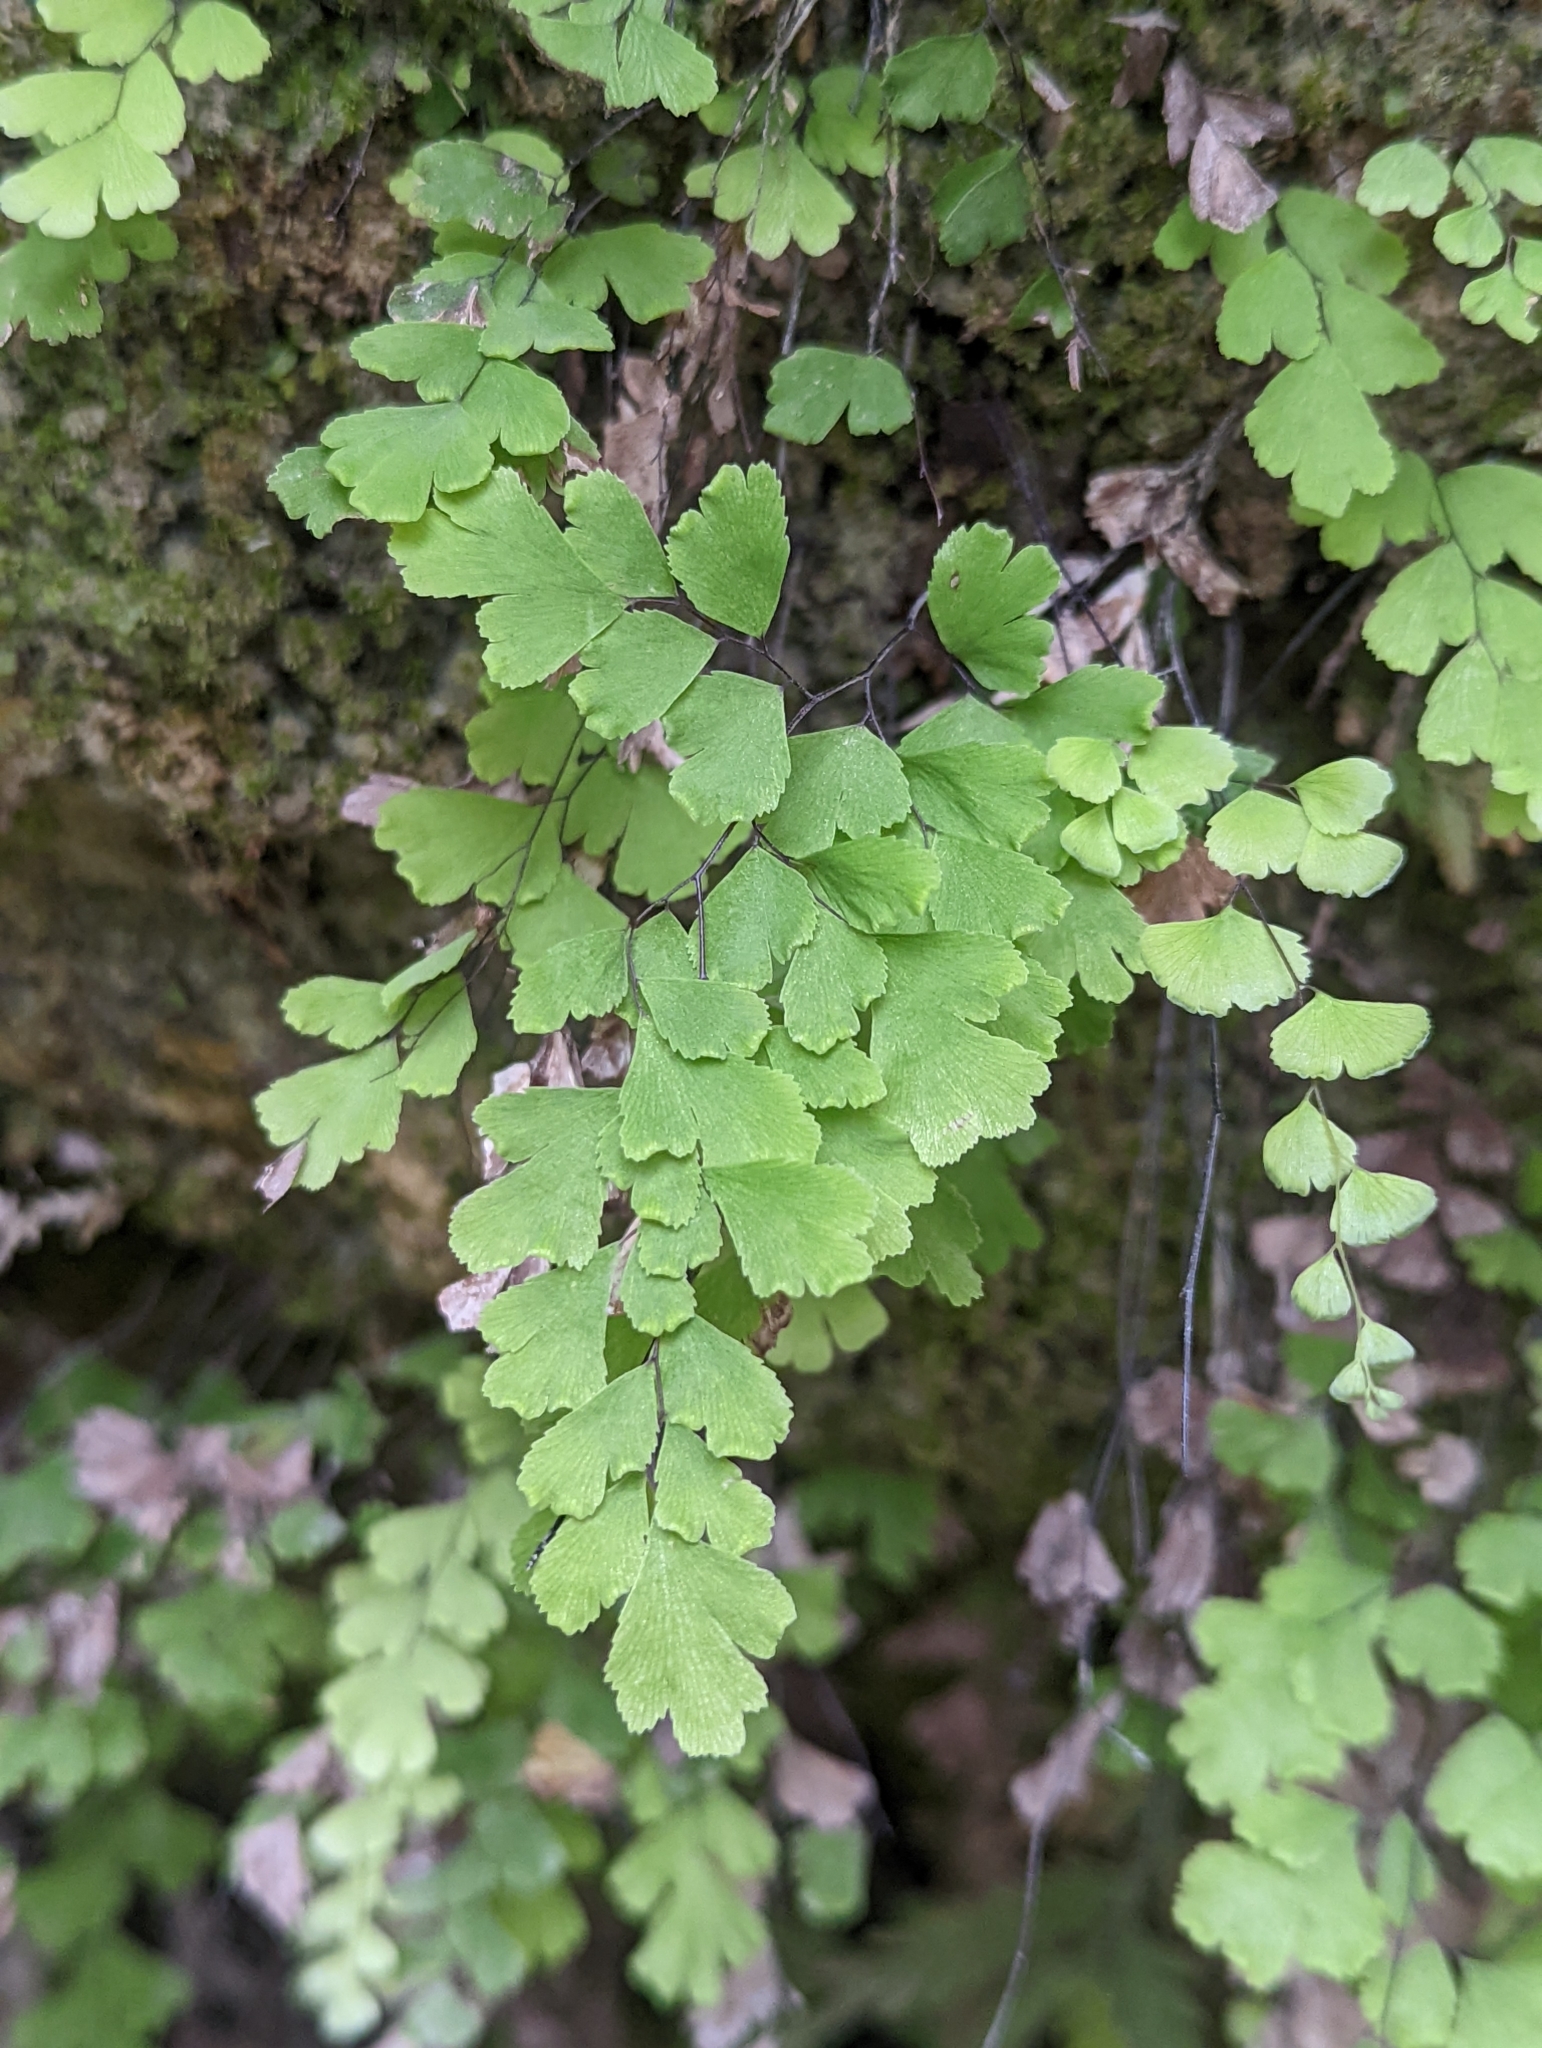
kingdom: Plantae
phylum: Tracheophyta
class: Polypodiopsida
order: Polypodiales
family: Pteridaceae
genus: Adiantum
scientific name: Adiantum capillus-veneris
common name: Maidenhair fern
